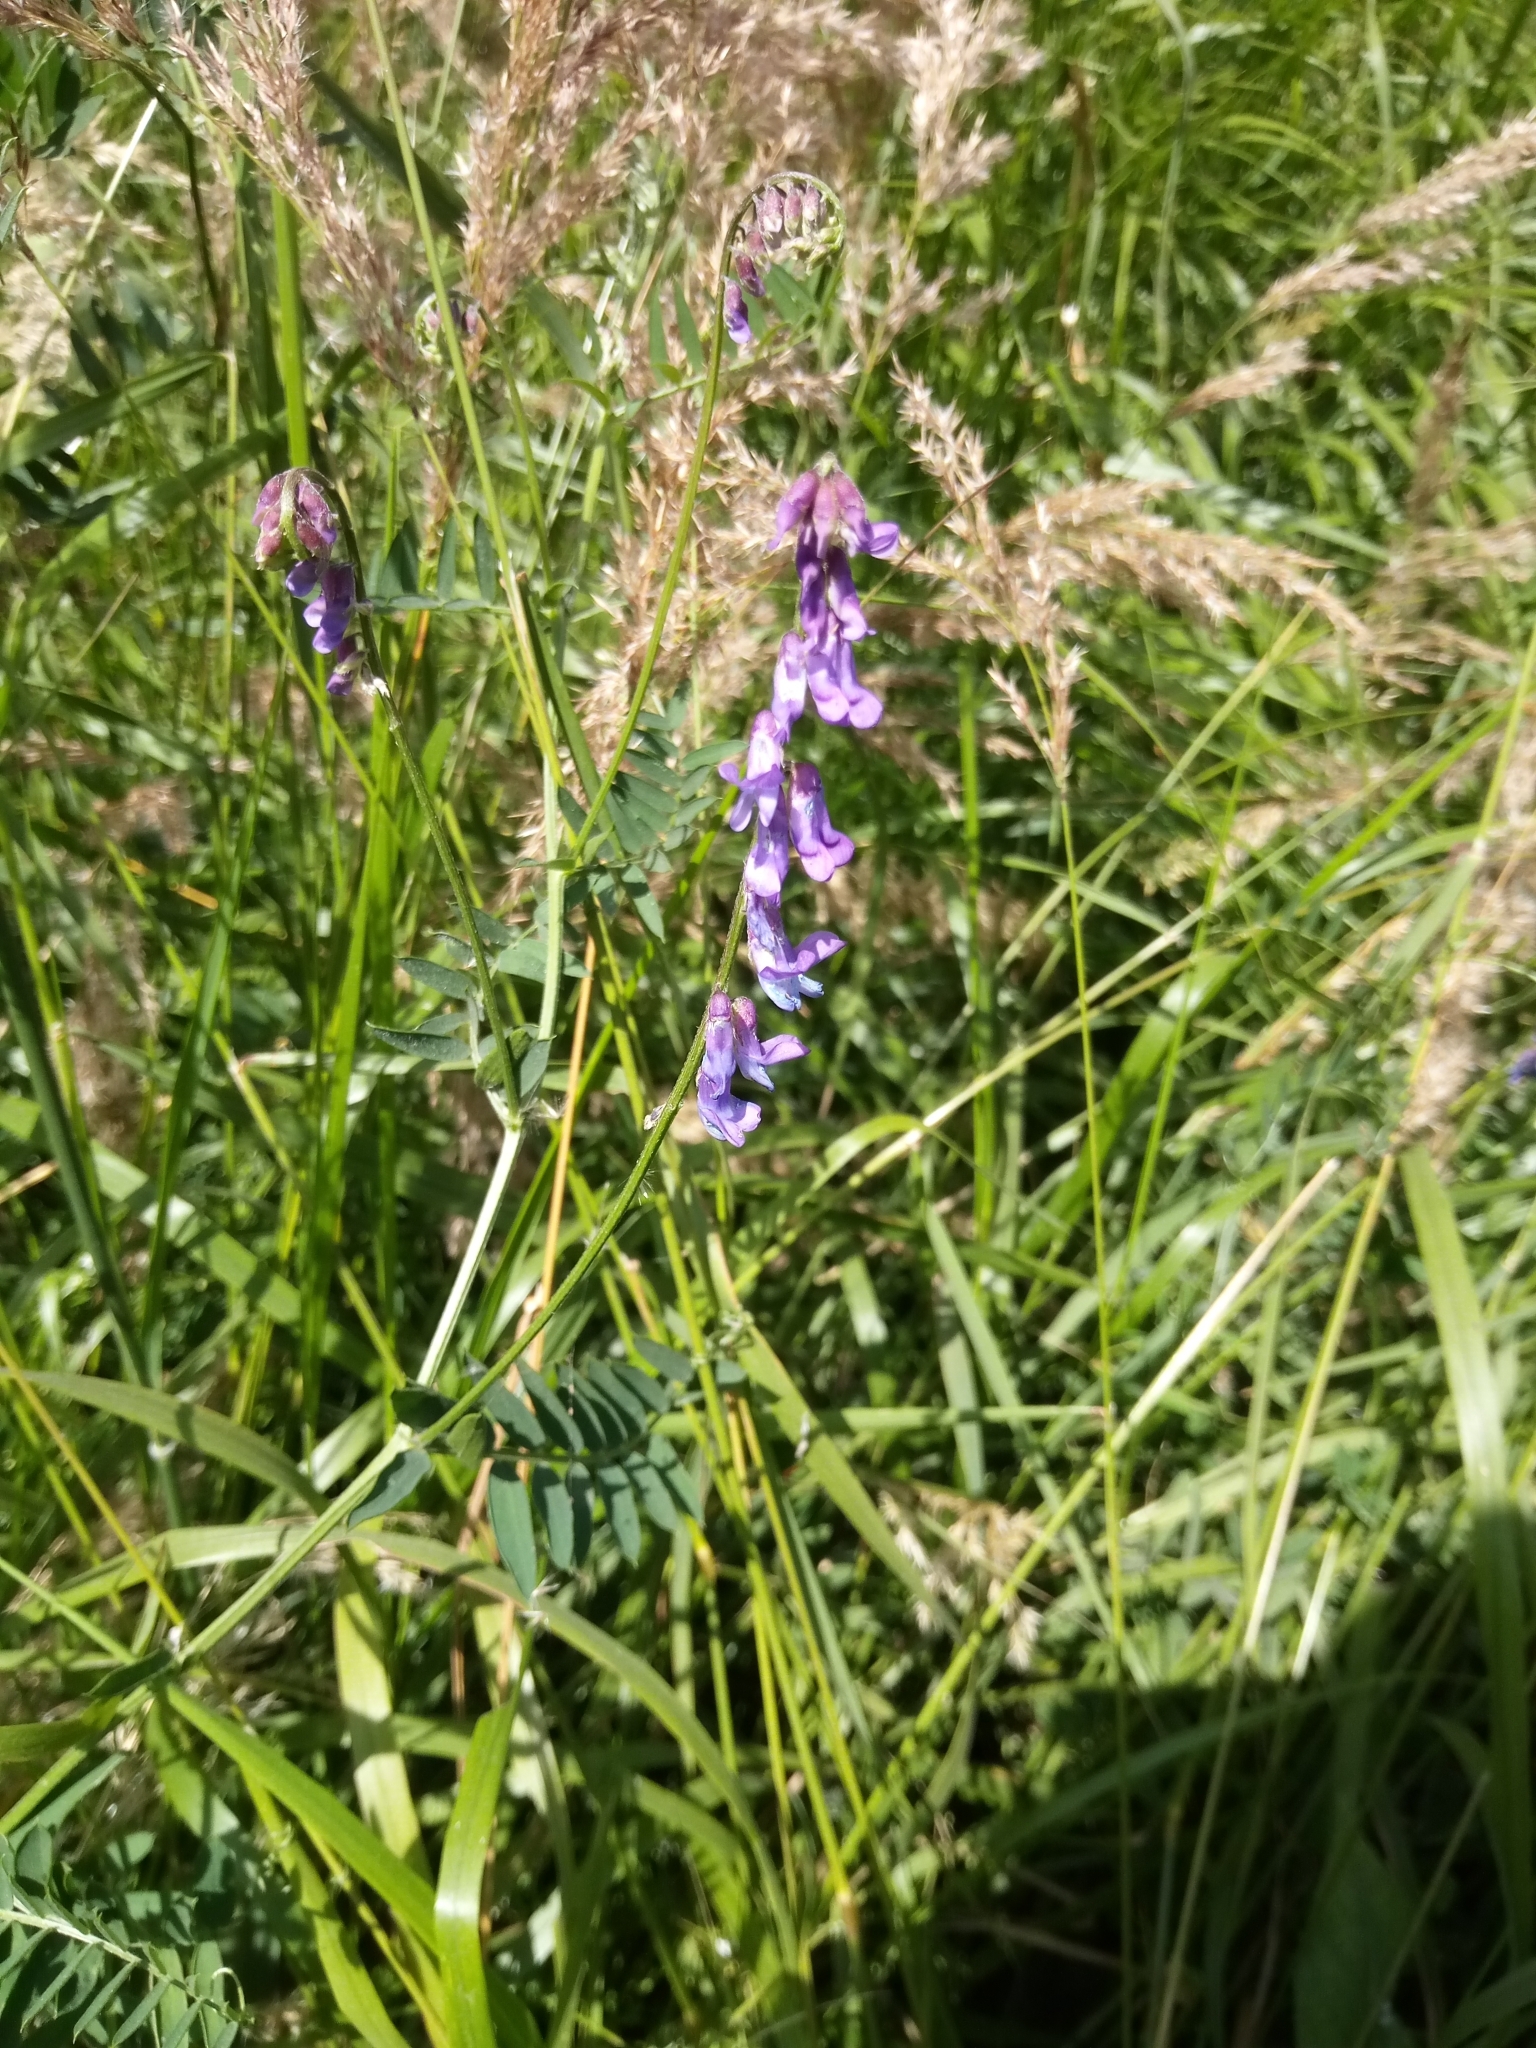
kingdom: Plantae
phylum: Tracheophyta
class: Magnoliopsida
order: Fabales
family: Fabaceae
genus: Vicia
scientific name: Vicia cracca
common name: Bird vetch
